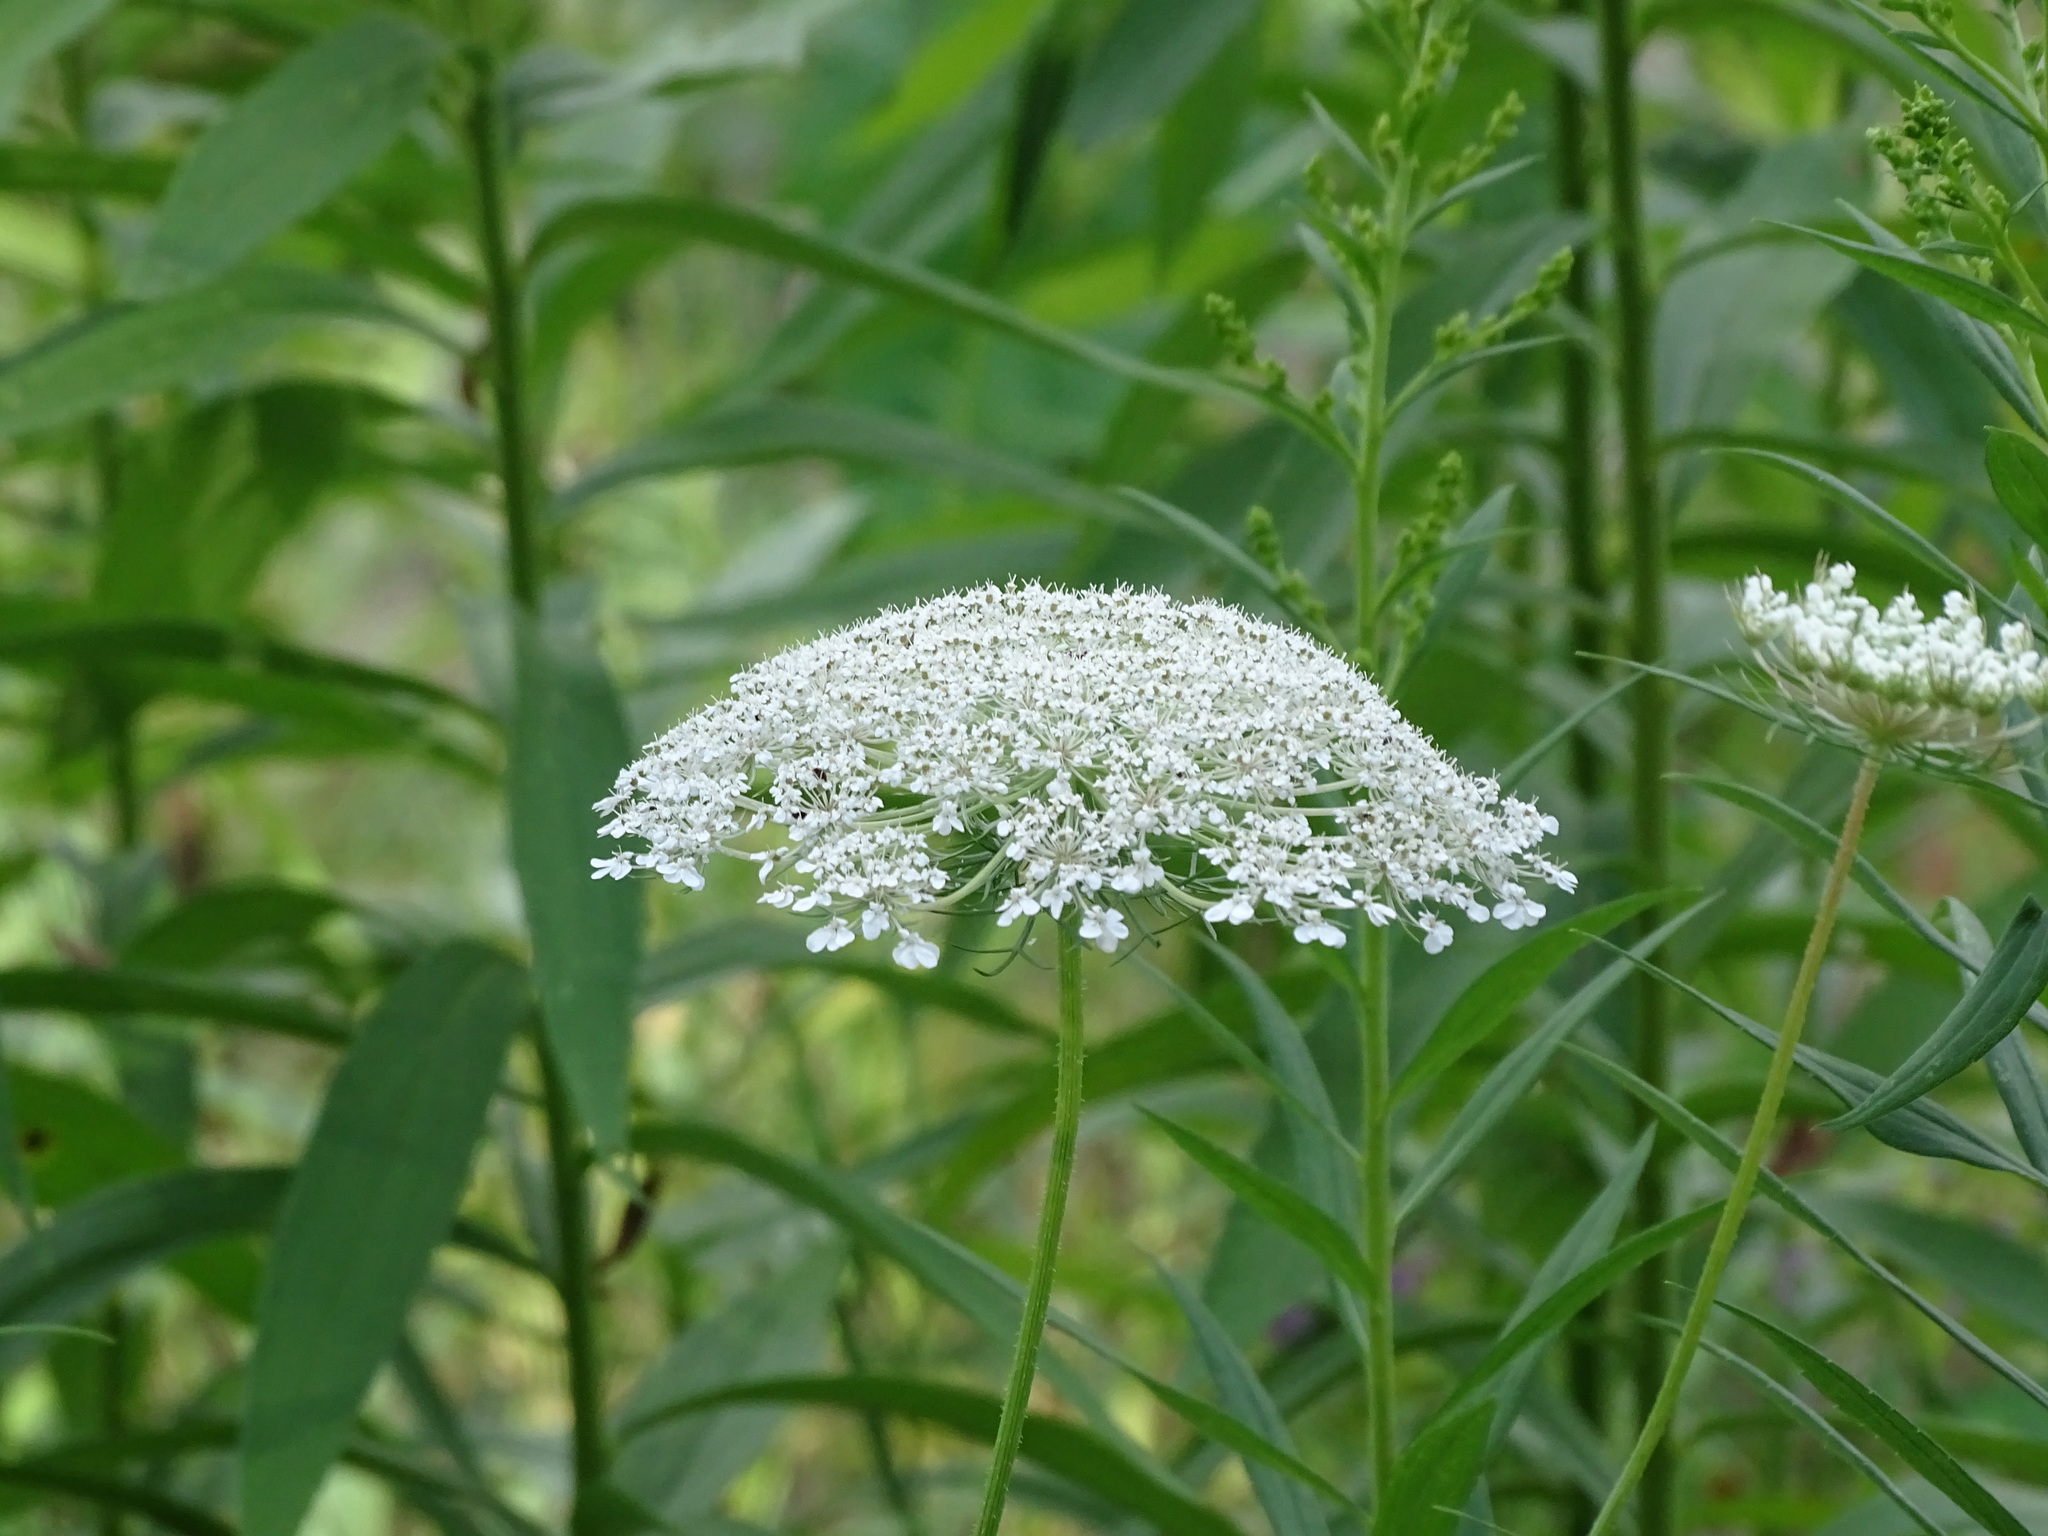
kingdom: Plantae
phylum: Tracheophyta
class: Magnoliopsida
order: Apiales
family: Apiaceae
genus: Daucus
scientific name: Daucus carota
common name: Wild carrot
